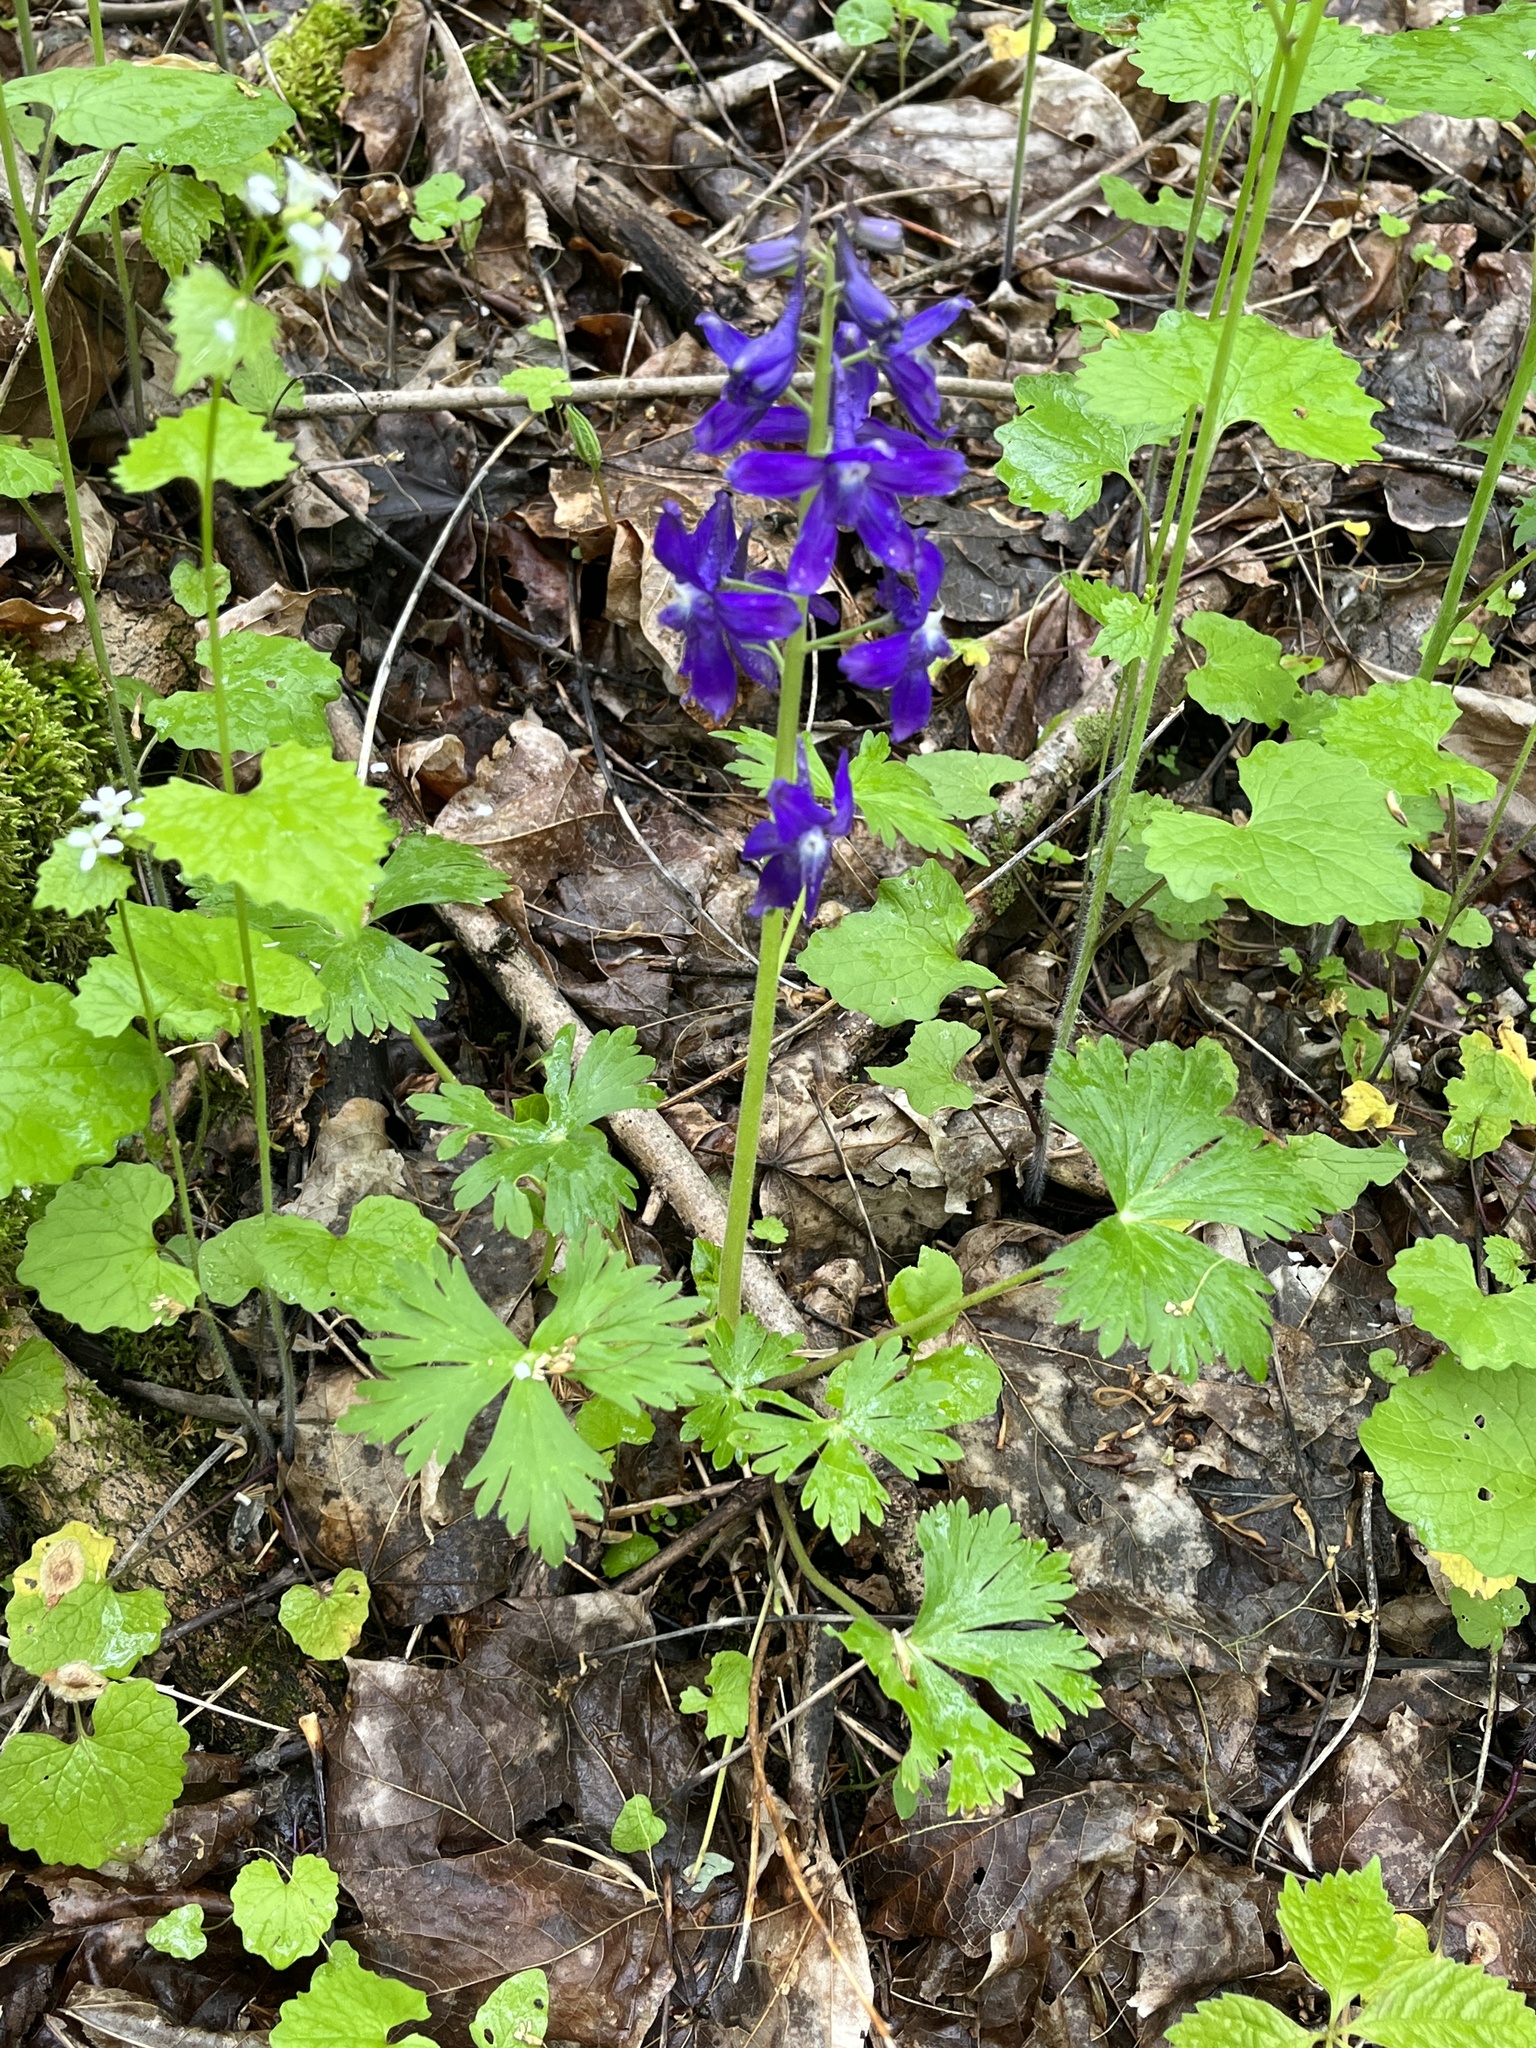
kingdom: Plantae
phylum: Tracheophyta
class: Magnoliopsida
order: Ranunculales
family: Ranunculaceae
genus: Delphinium
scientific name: Delphinium tricorne
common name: Dwarf larkspur
